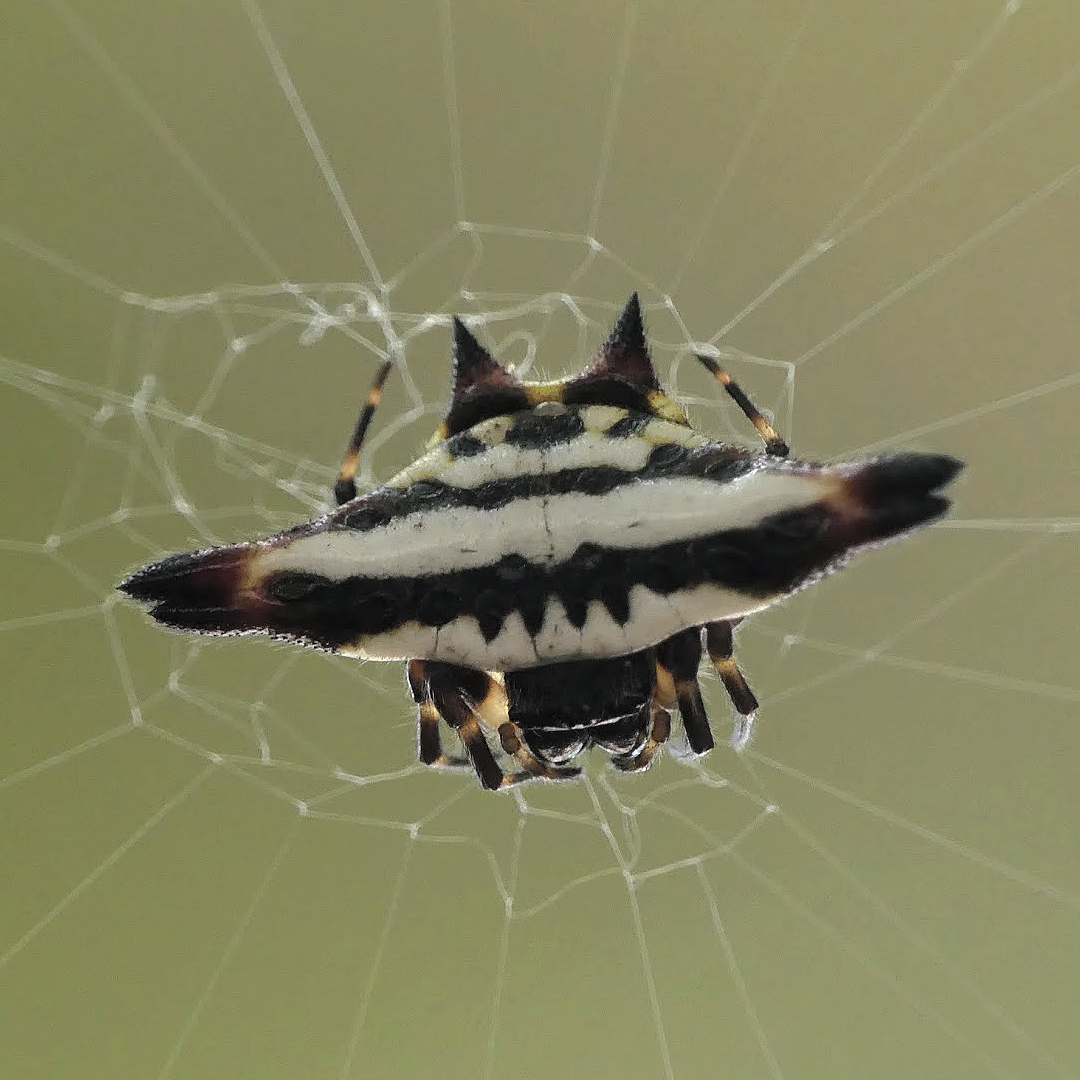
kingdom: Animalia
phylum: Arthropoda
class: Arachnida
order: Araneae
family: Araneidae
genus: Gasteracantha
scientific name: Gasteracantha geminata
